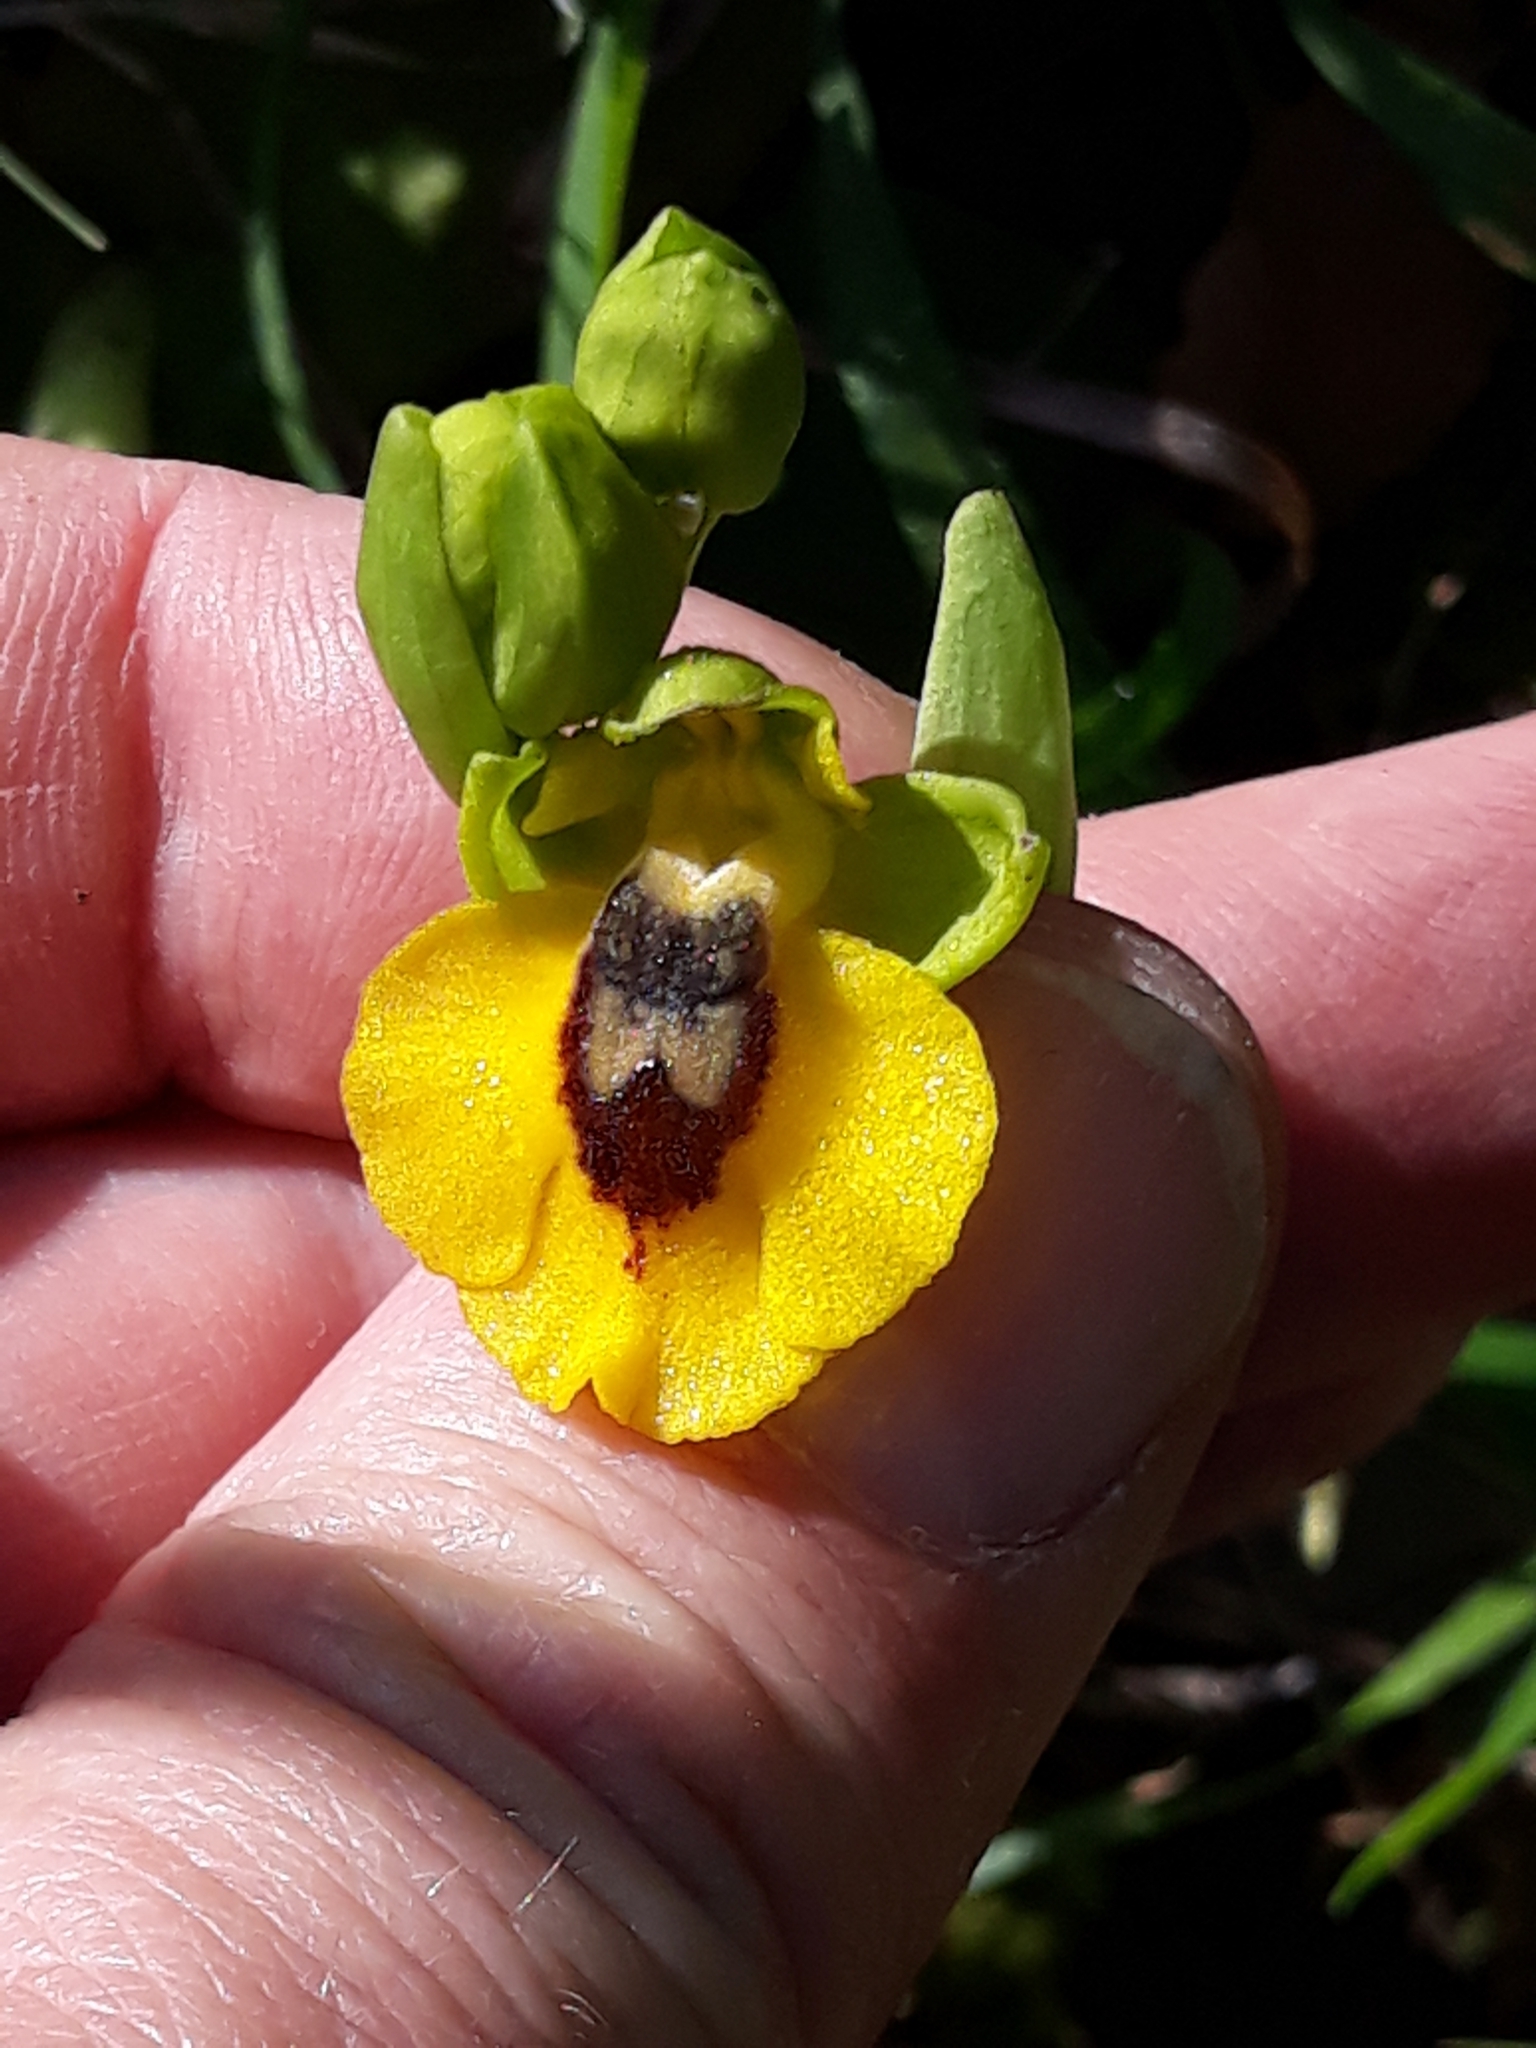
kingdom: Plantae
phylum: Tracheophyta
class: Liliopsida
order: Asparagales
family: Orchidaceae
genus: Ophrys
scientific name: Ophrys lutea
